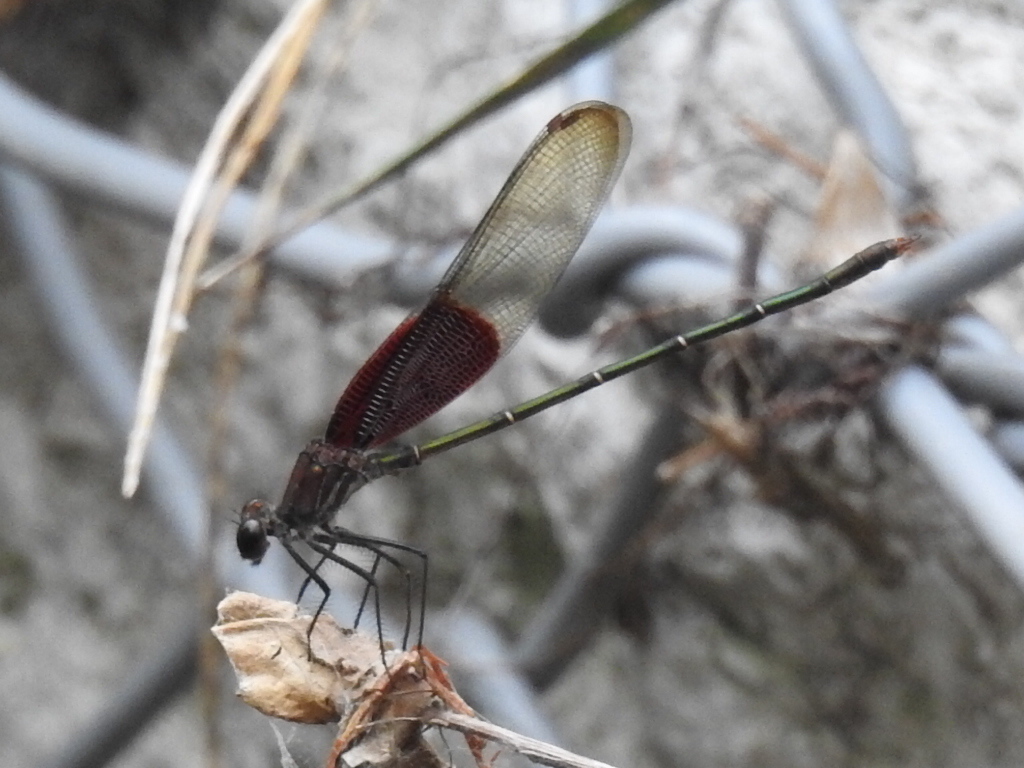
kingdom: Animalia
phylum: Arthropoda
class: Insecta
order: Odonata
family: Calopterygidae
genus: Hetaerina
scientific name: Hetaerina americana
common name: American rubyspot
